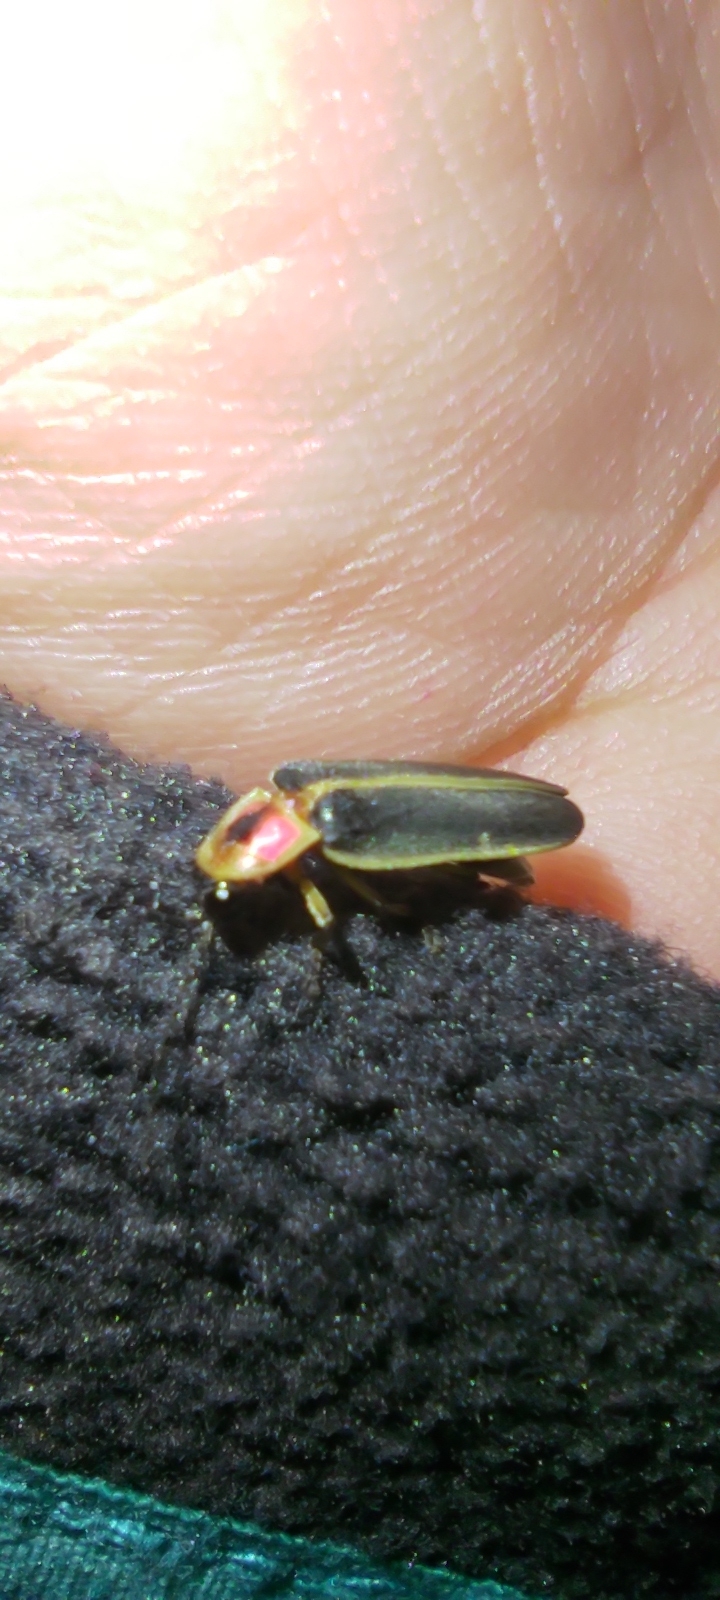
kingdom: Animalia
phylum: Arthropoda
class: Insecta
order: Coleoptera
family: Lampyridae
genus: Photinus
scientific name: Photinus pyralis
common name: Big dipper firefly
